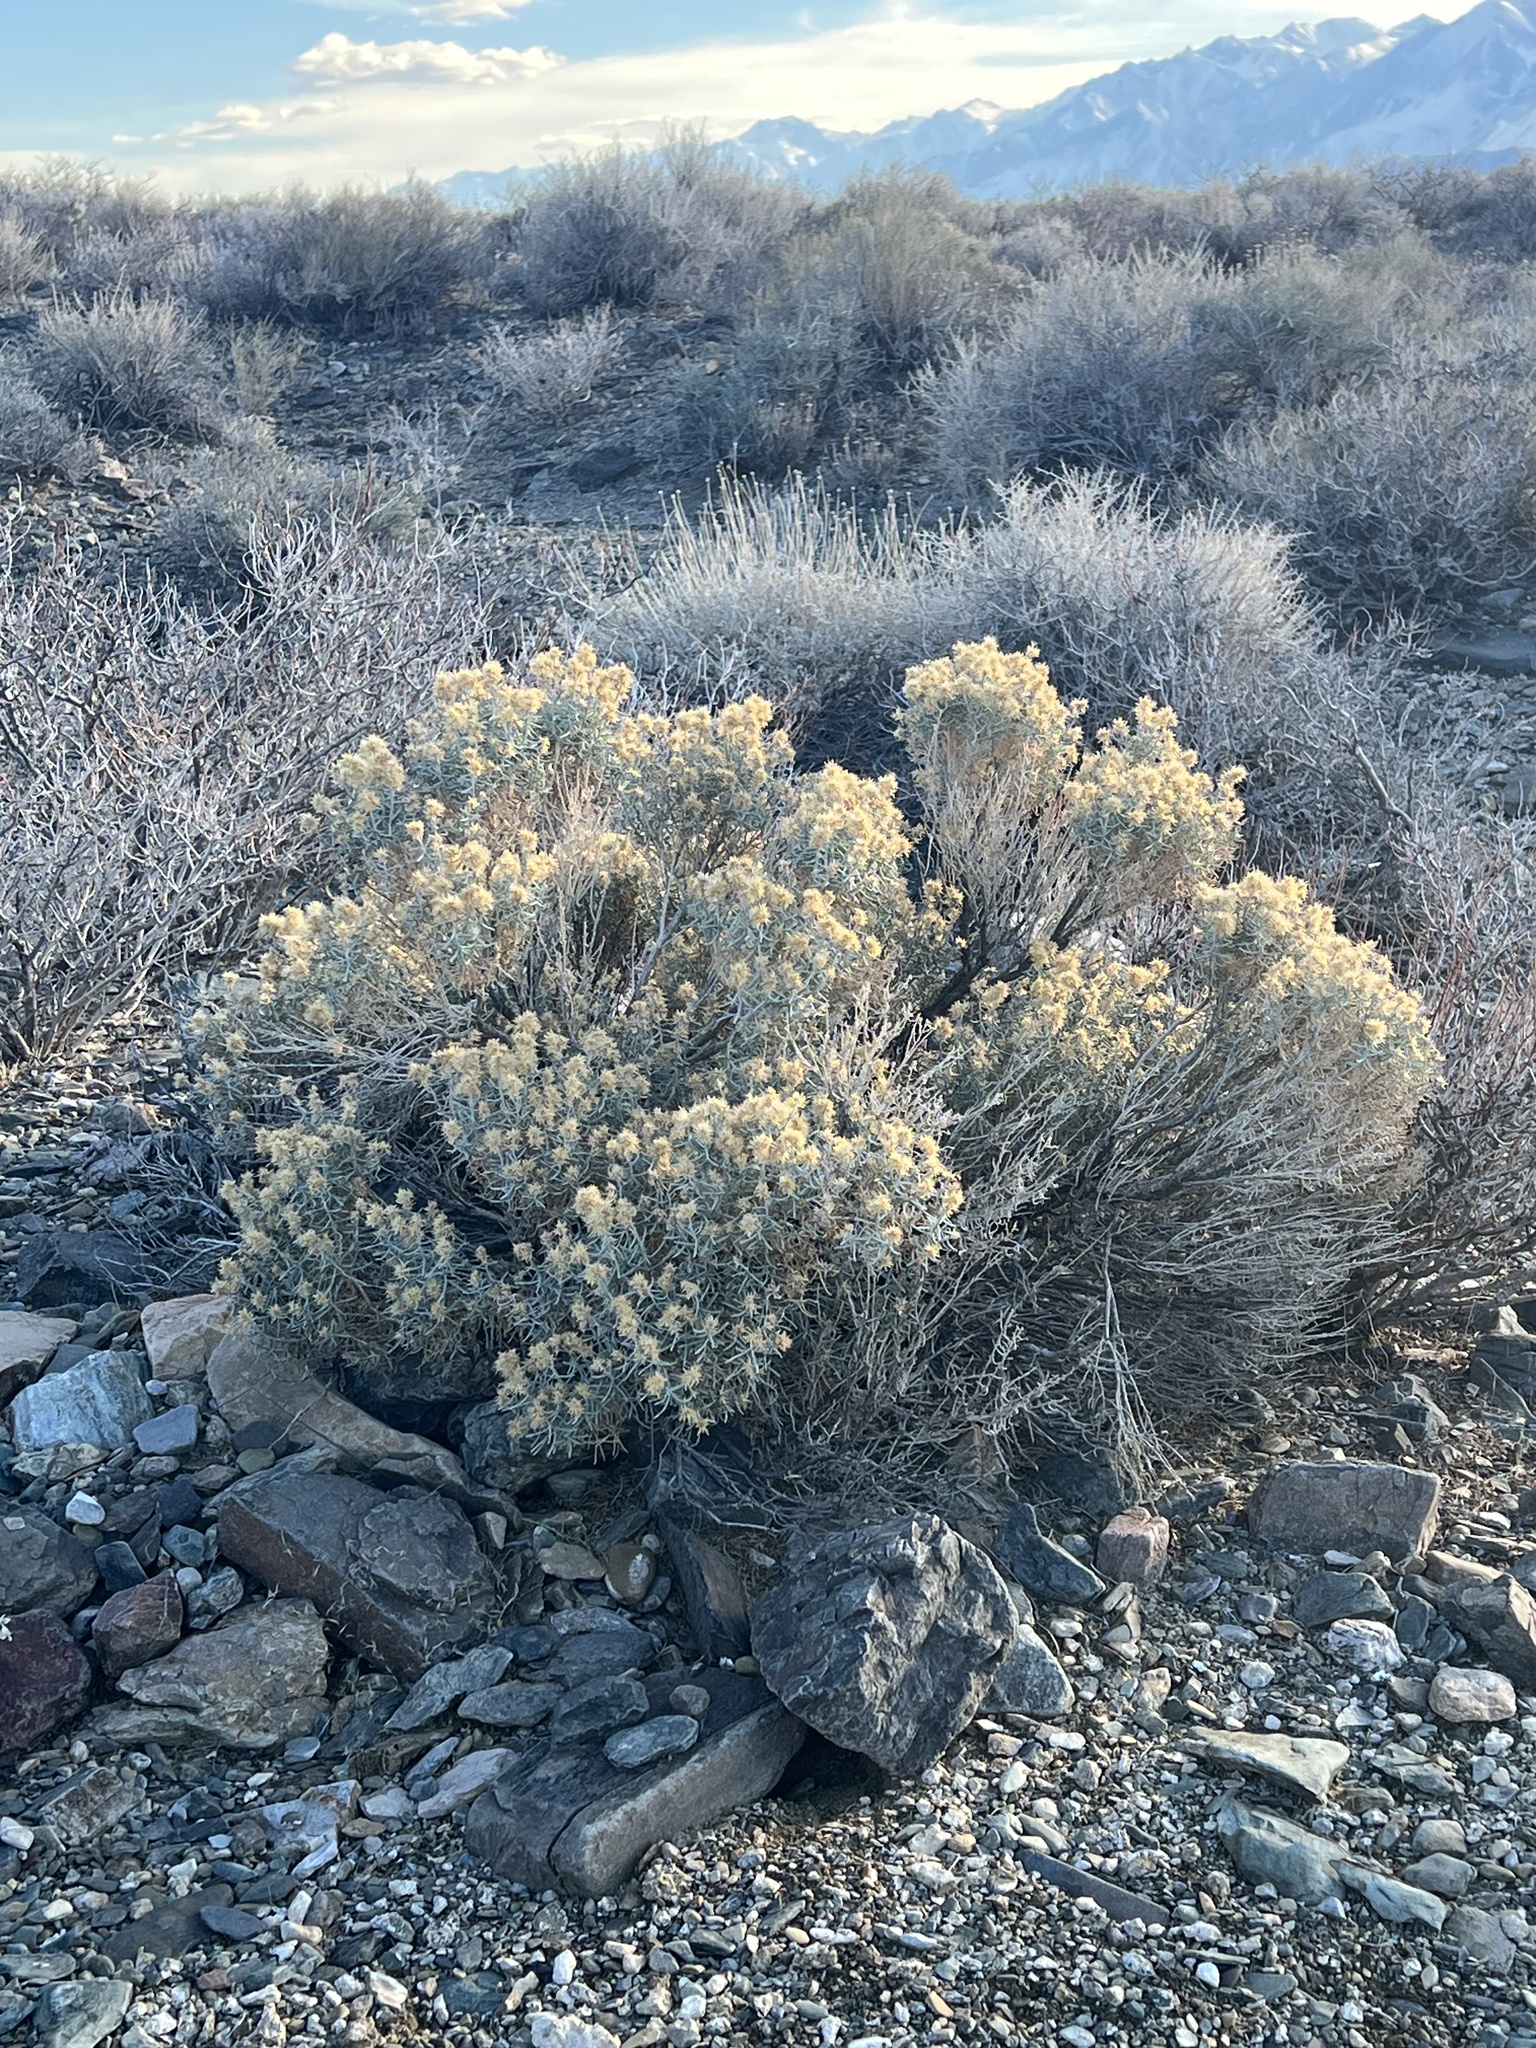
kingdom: Plantae
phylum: Tracheophyta
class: Magnoliopsida
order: Asterales
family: Asteraceae
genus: Ericameria
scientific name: Ericameria teretifolia
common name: Round-leaf rabbitbrush
